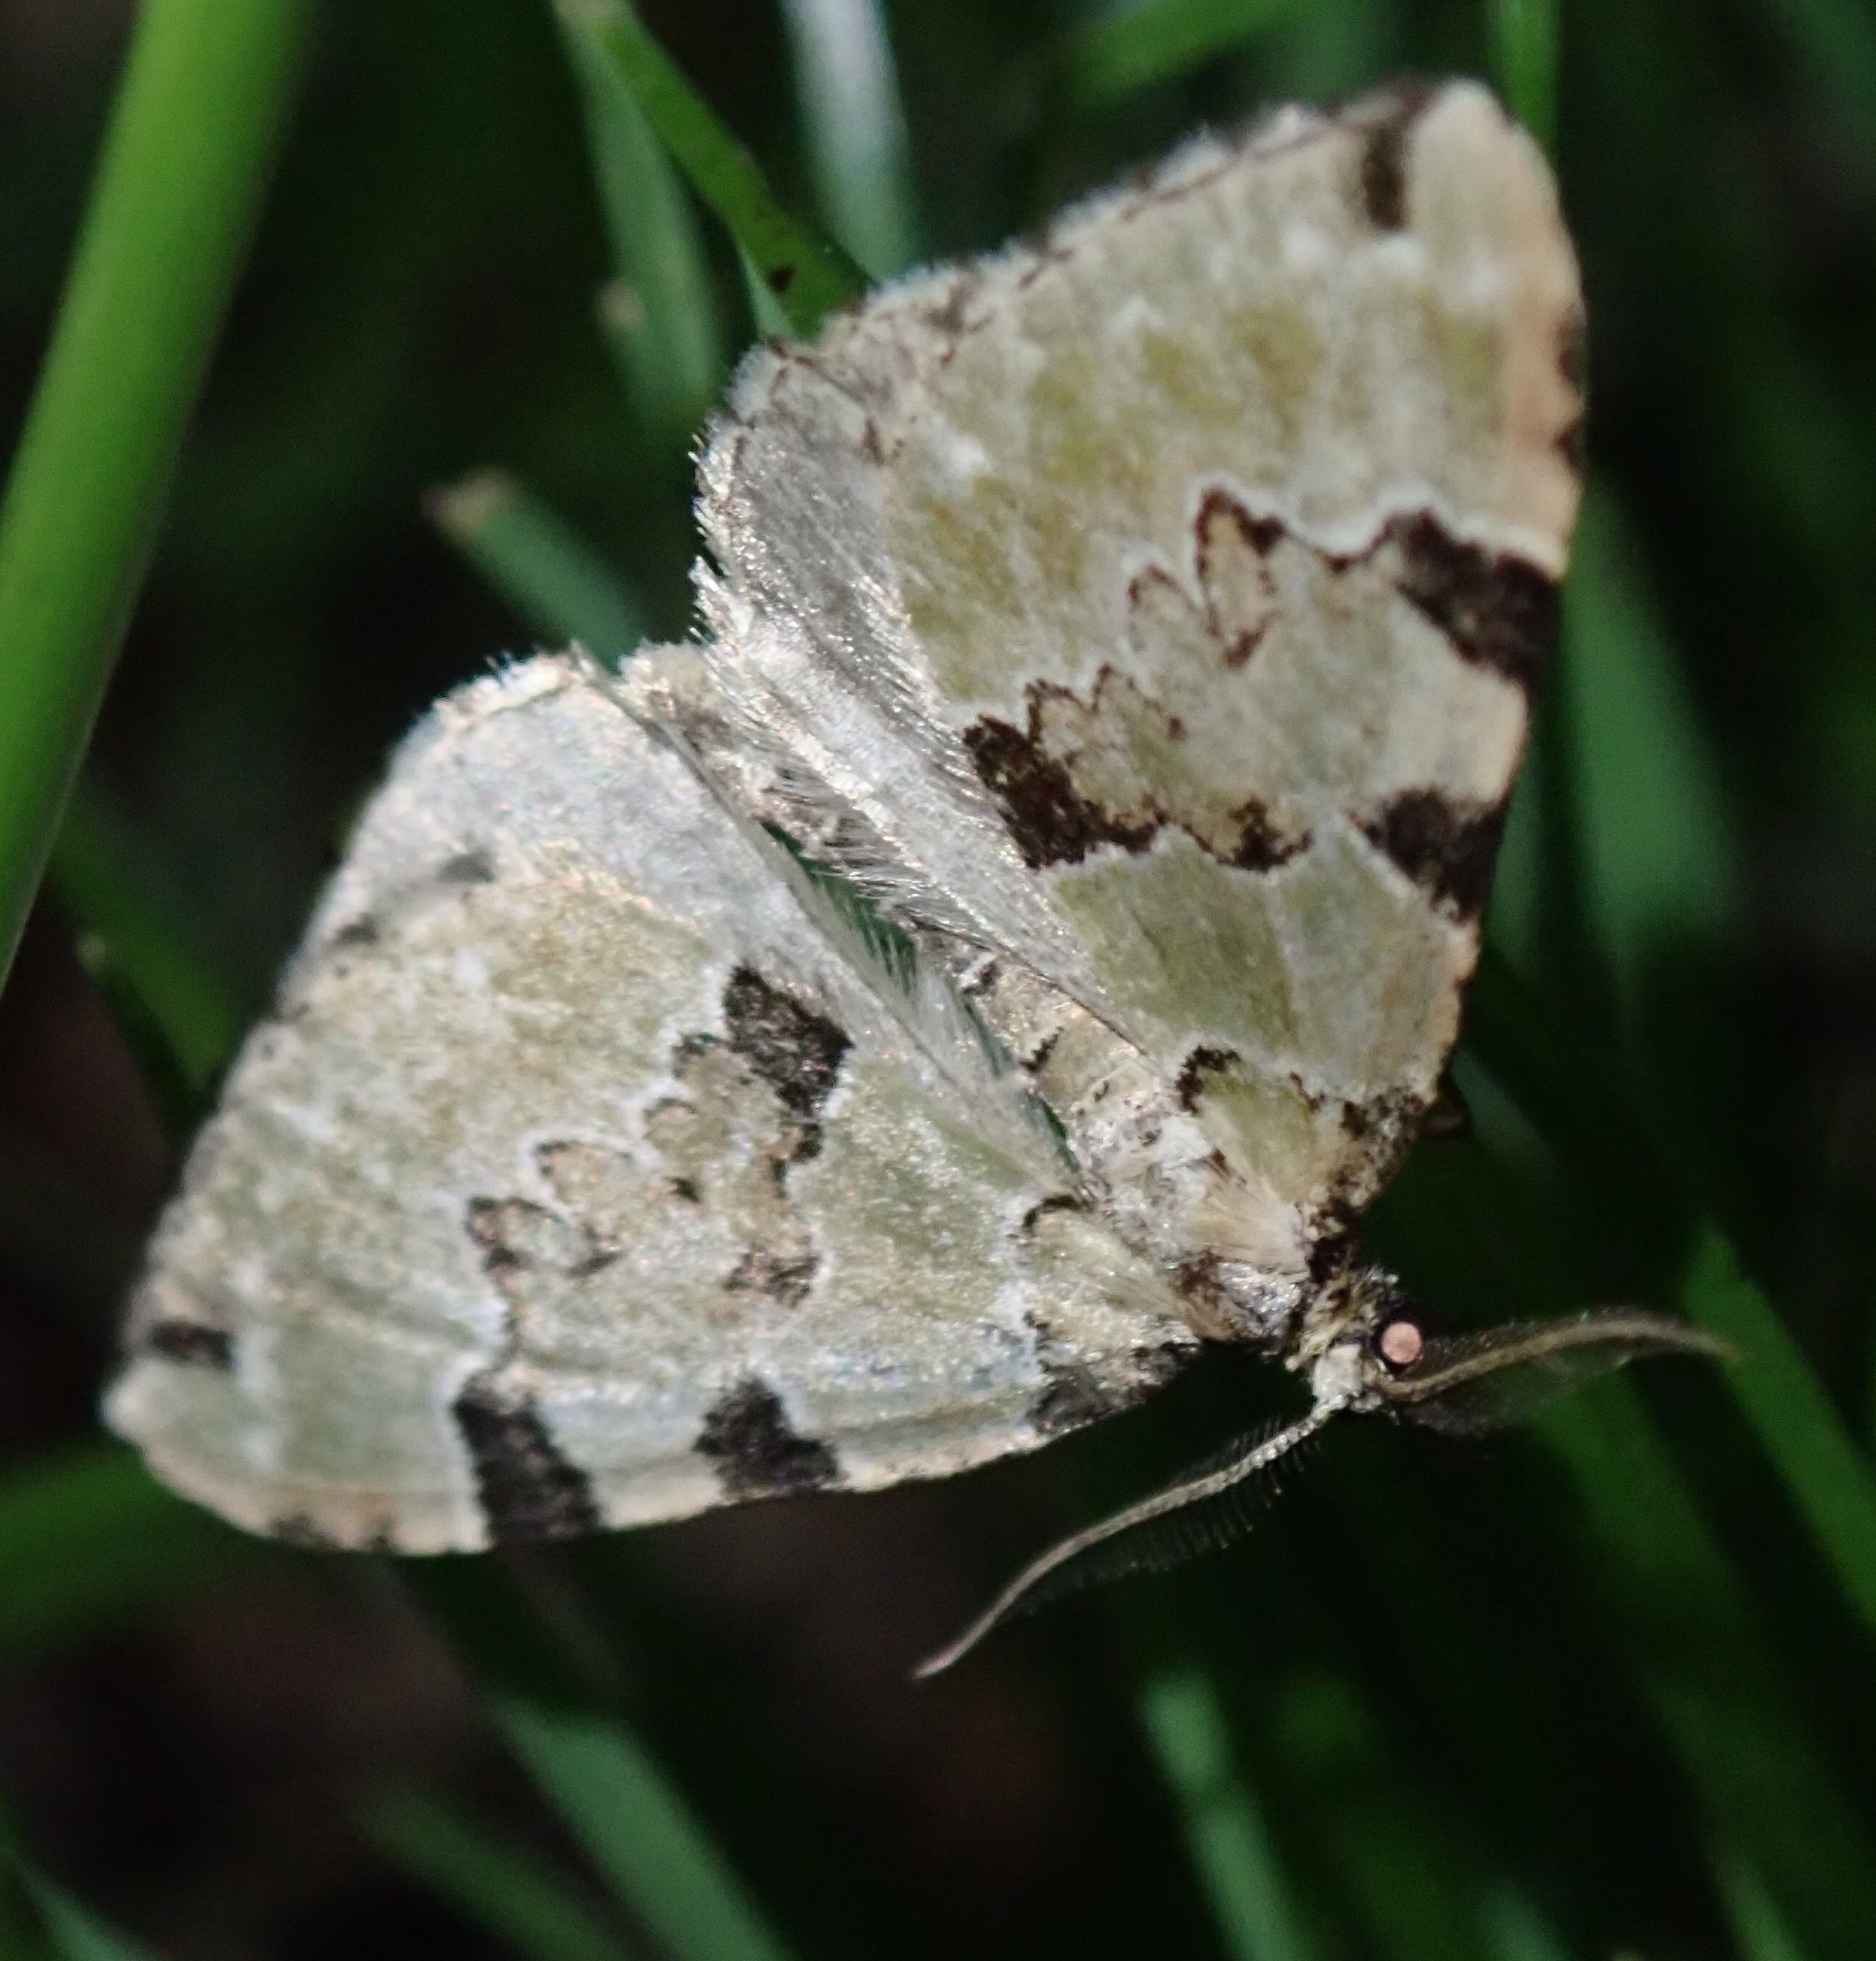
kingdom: Animalia
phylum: Arthropoda
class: Insecta
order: Lepidoptera
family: Geometridae
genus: Colostygia
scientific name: Colostygia pectinataria
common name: Green carpet
